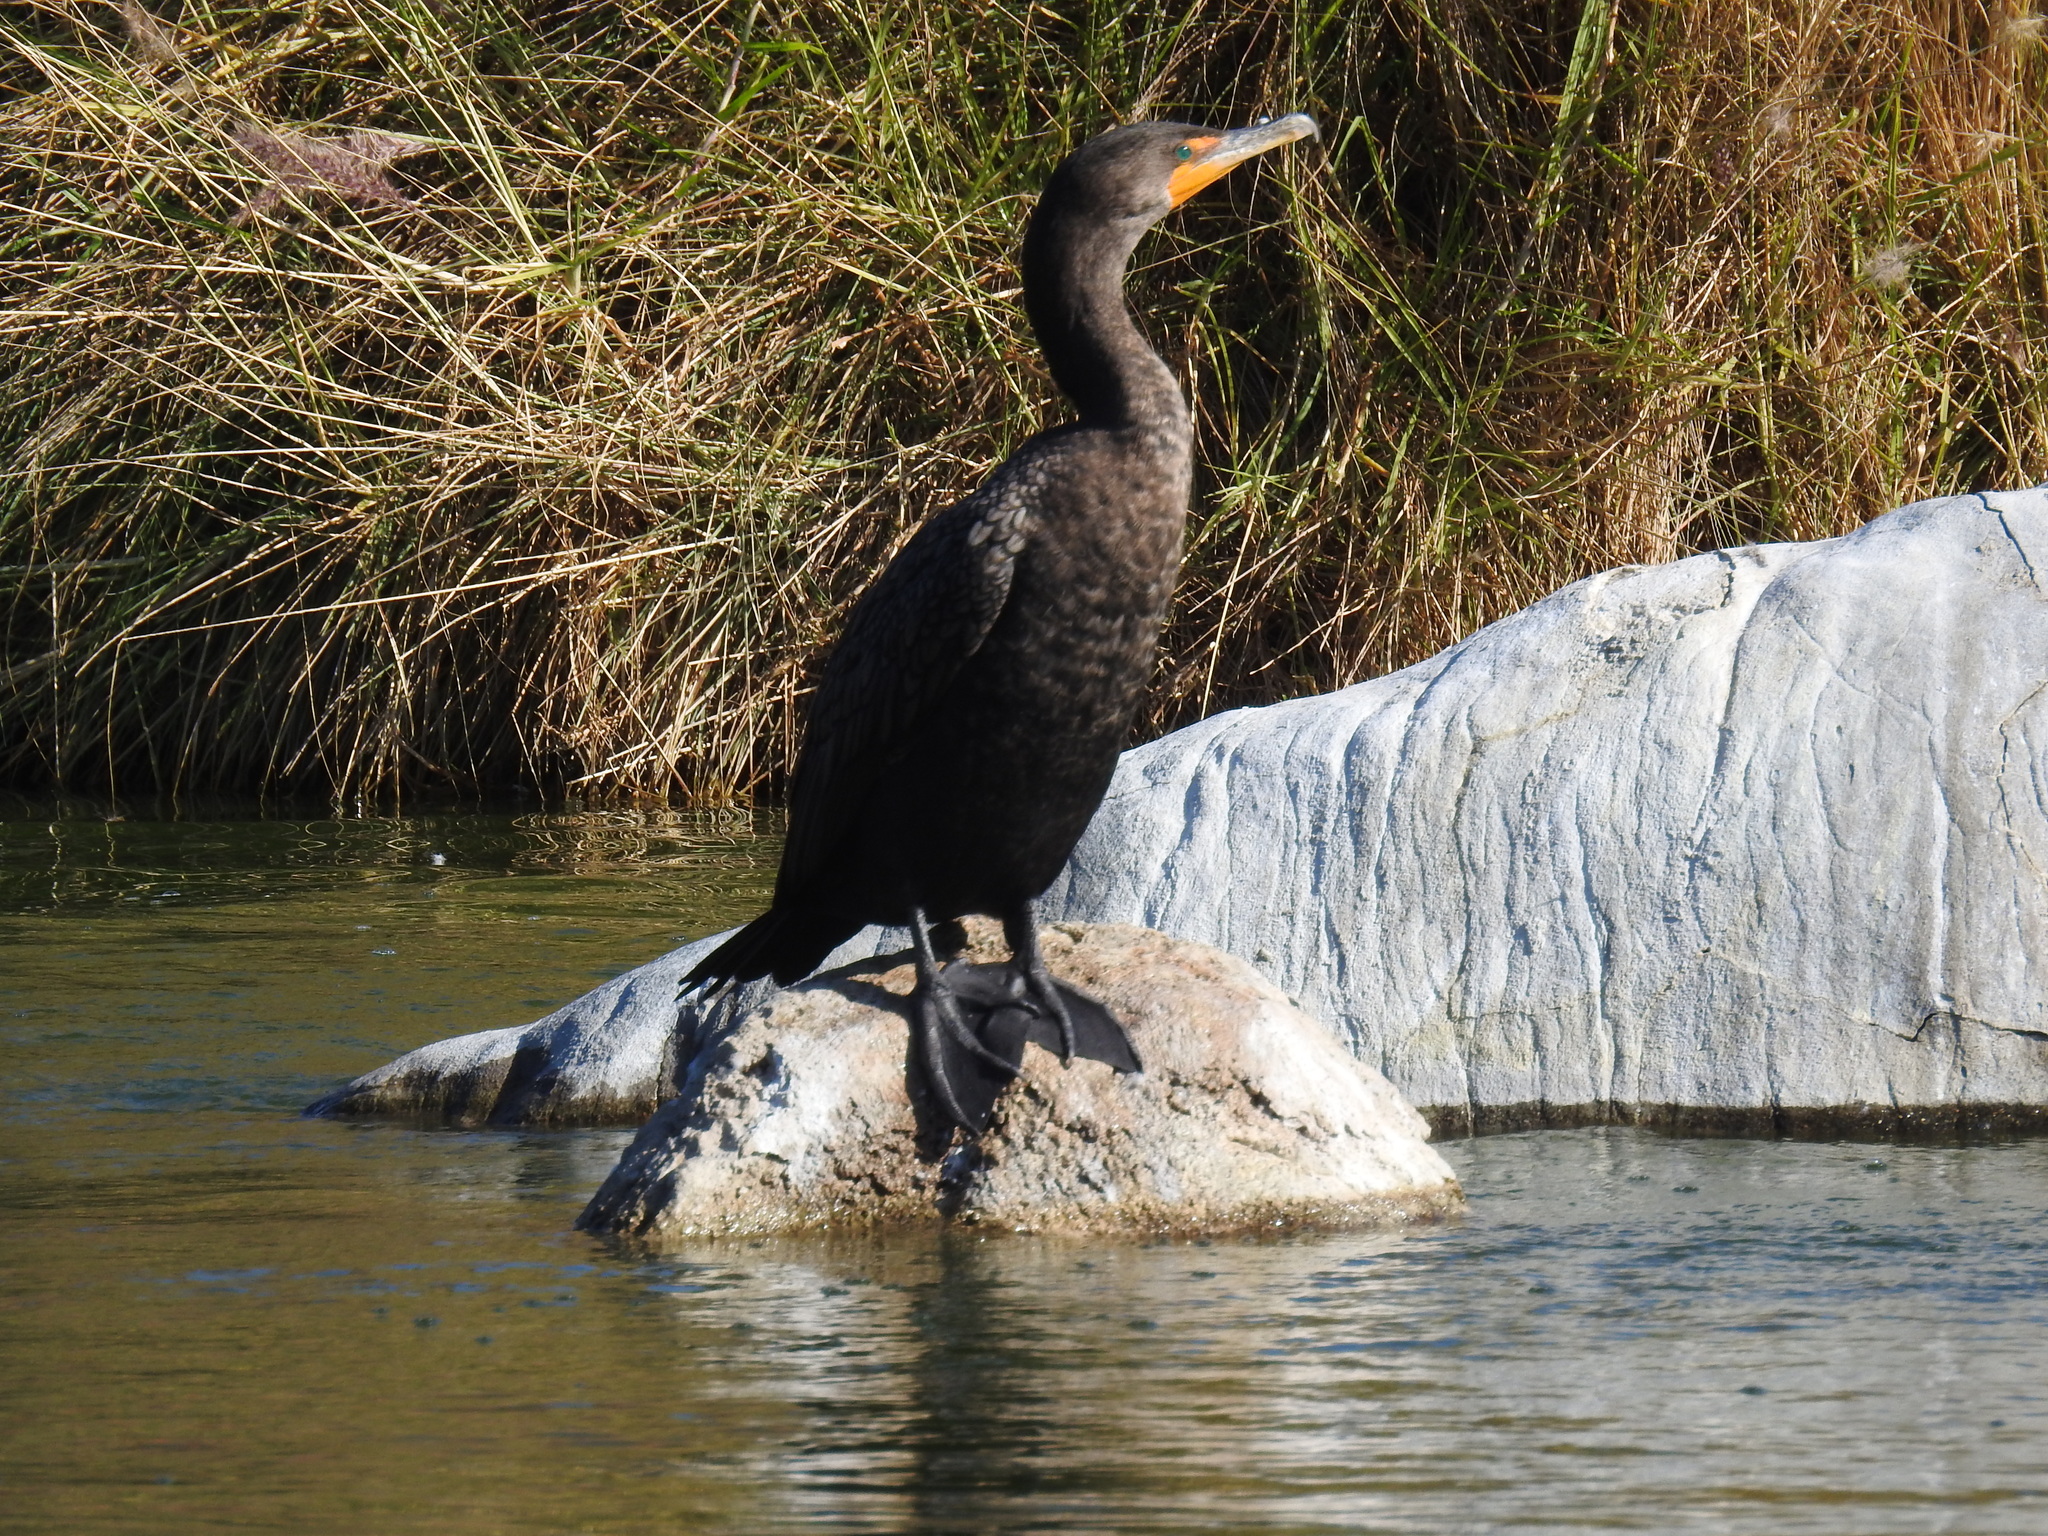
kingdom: Animalia
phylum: Chordata
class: Aves
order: Suliformes
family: Phalacrocoracidae
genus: Phalacrocorax
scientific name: Phalacrocorax auritus
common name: Double-crested cormorant
